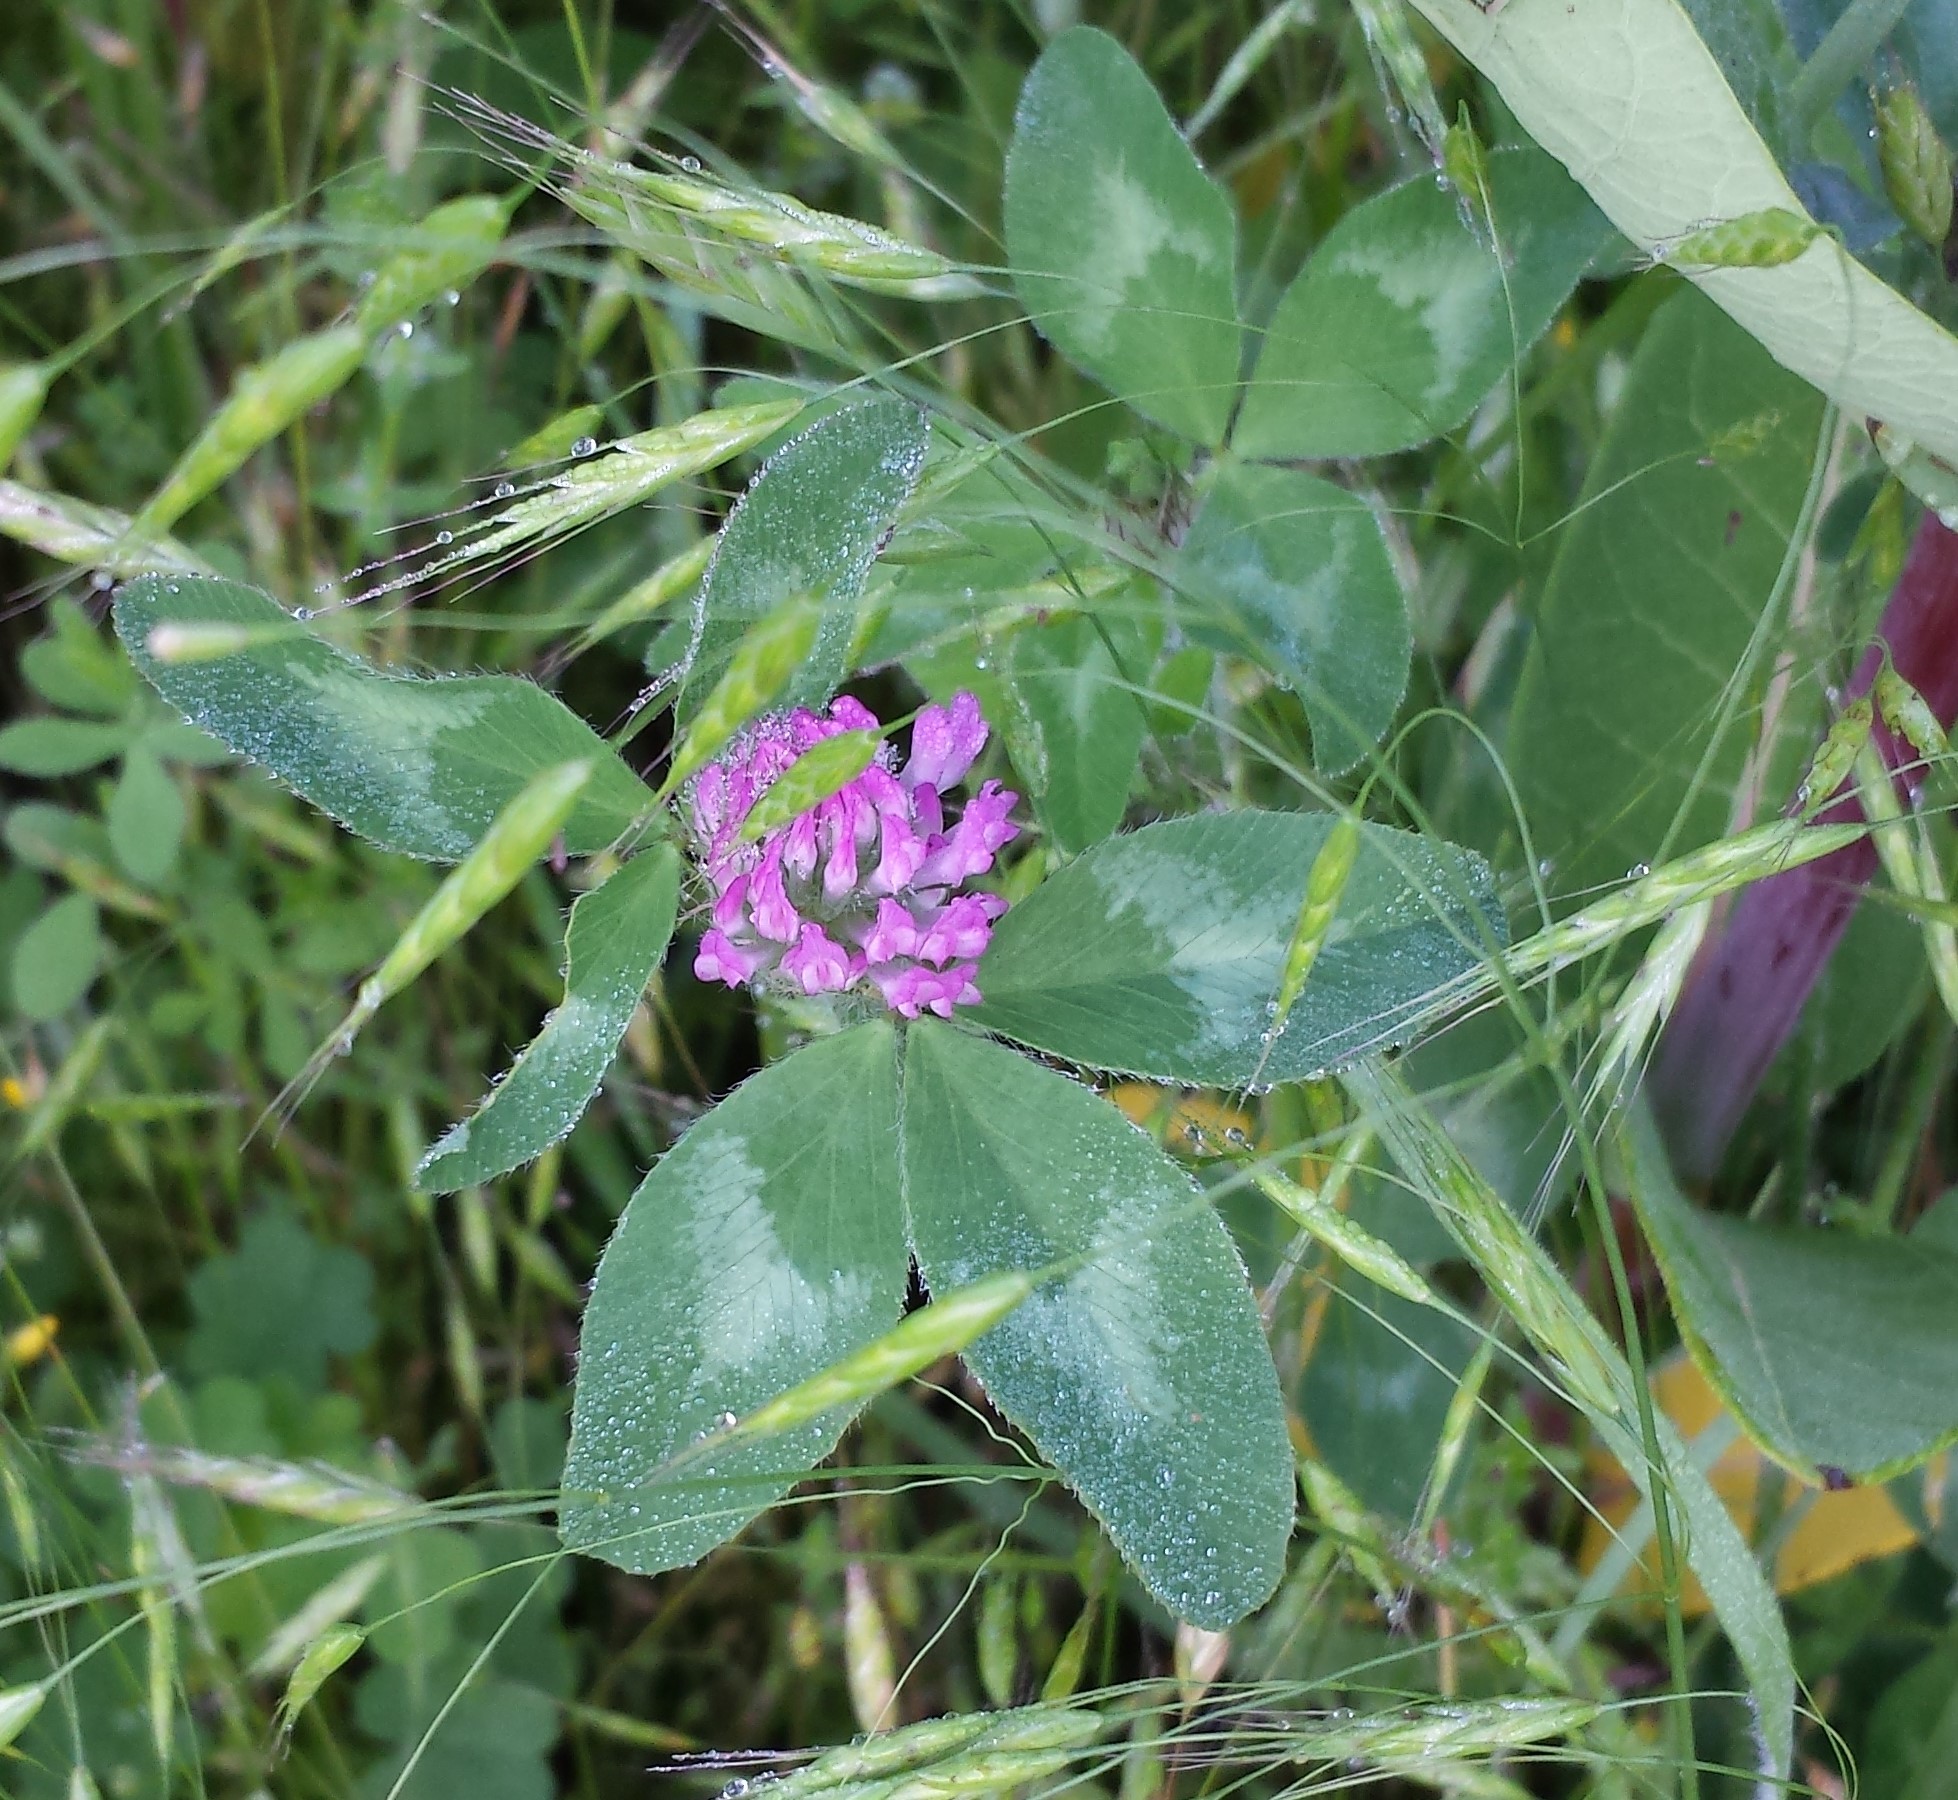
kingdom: Plantae
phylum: Tracheophyta
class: Magnoliopsida
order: Fabales
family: Fabaceae
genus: Trifolium
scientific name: Trifolium pratense
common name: Red clover
